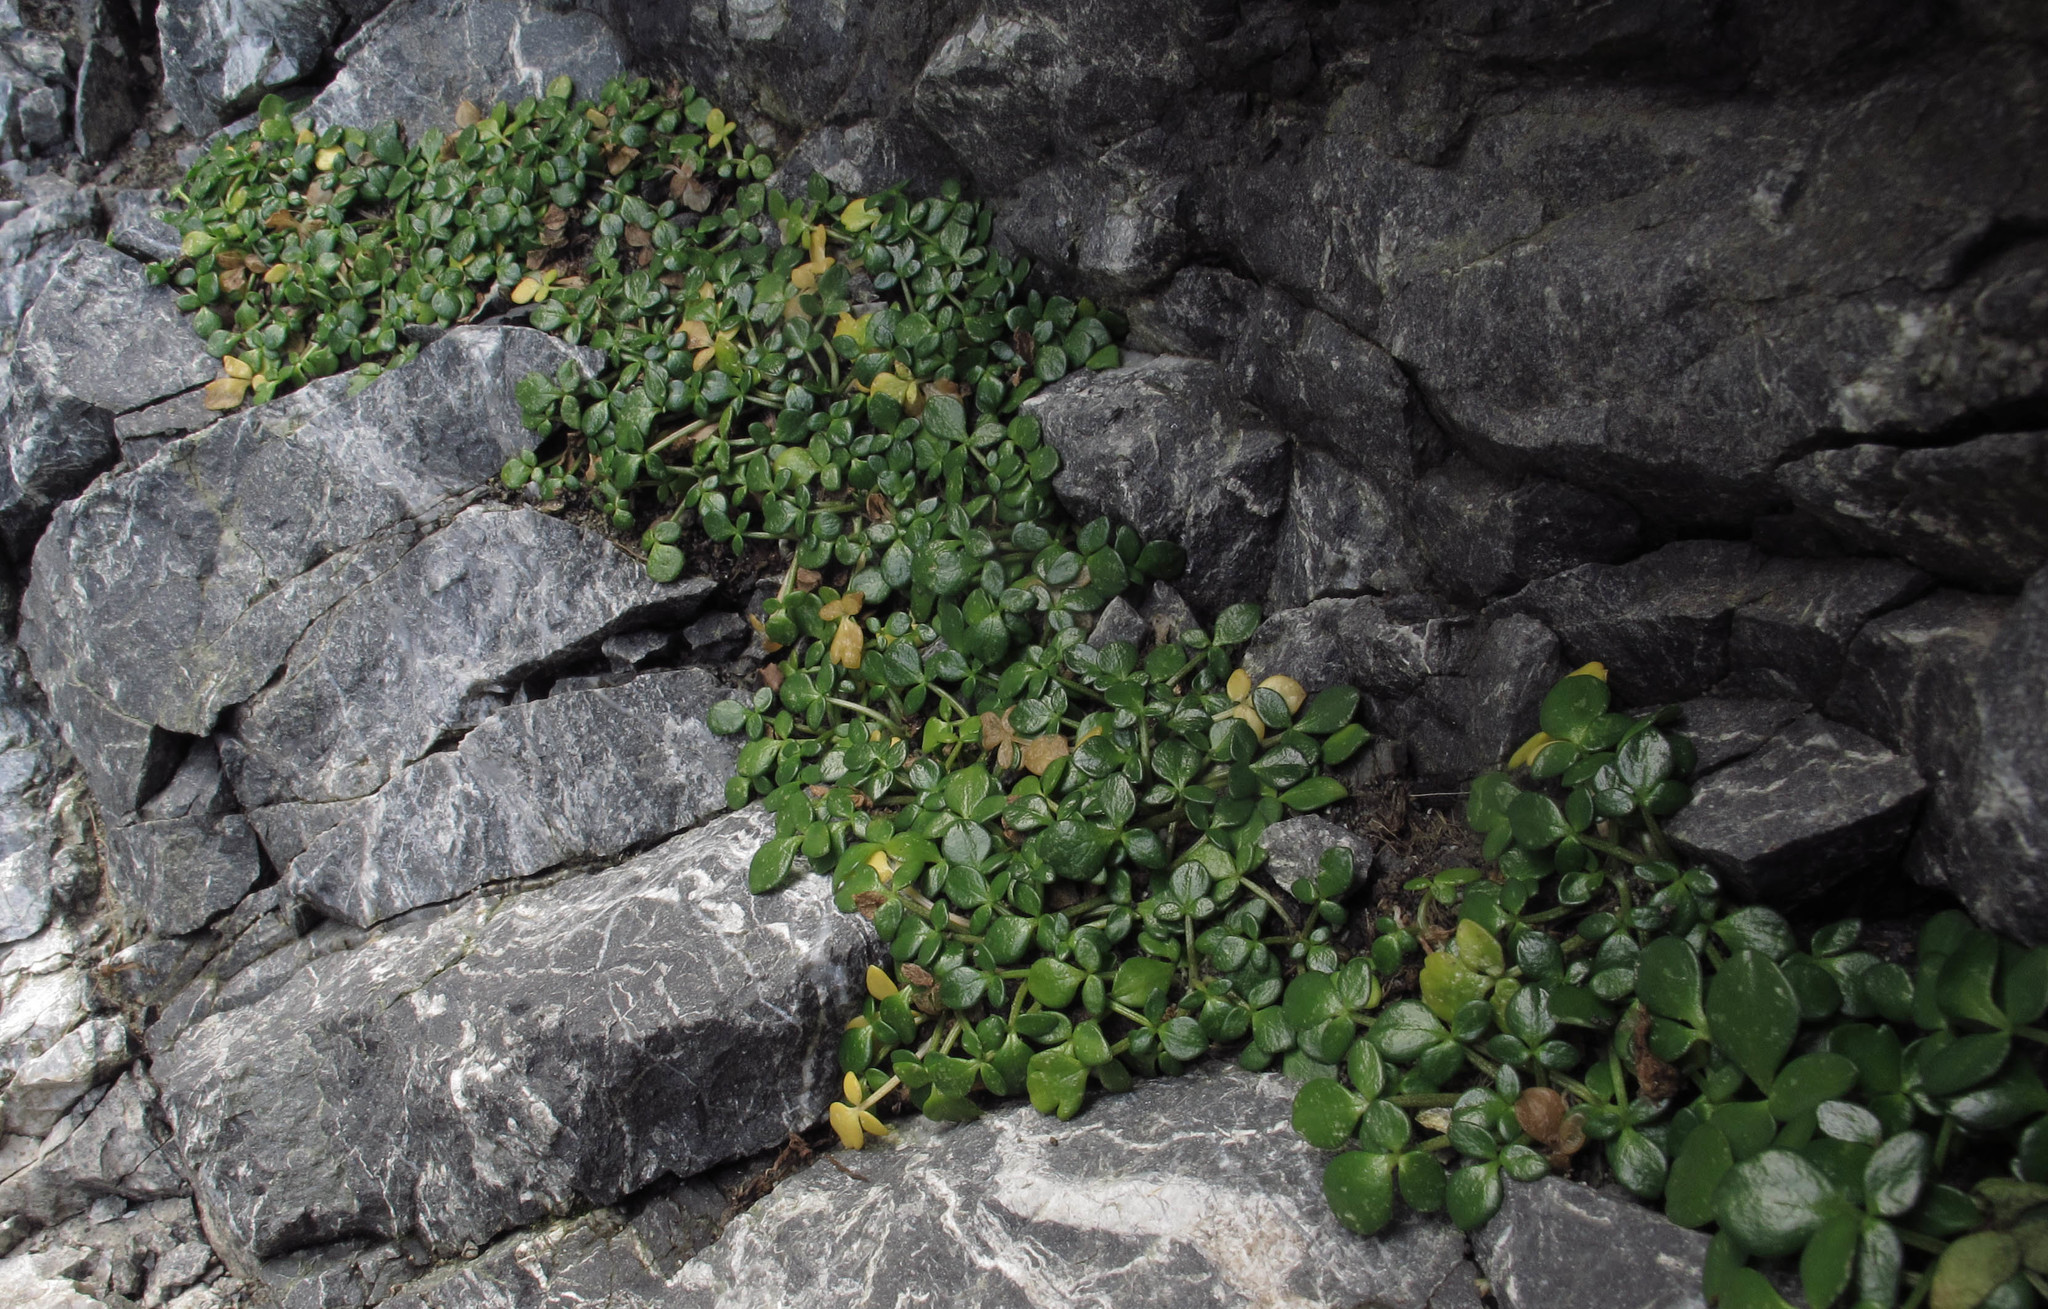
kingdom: Plantae
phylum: Tracheophyta
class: Magnoliopsida
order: Ranunculales
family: Ranunculaceae
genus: Ranunculus
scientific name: Ranunculus acaulis
